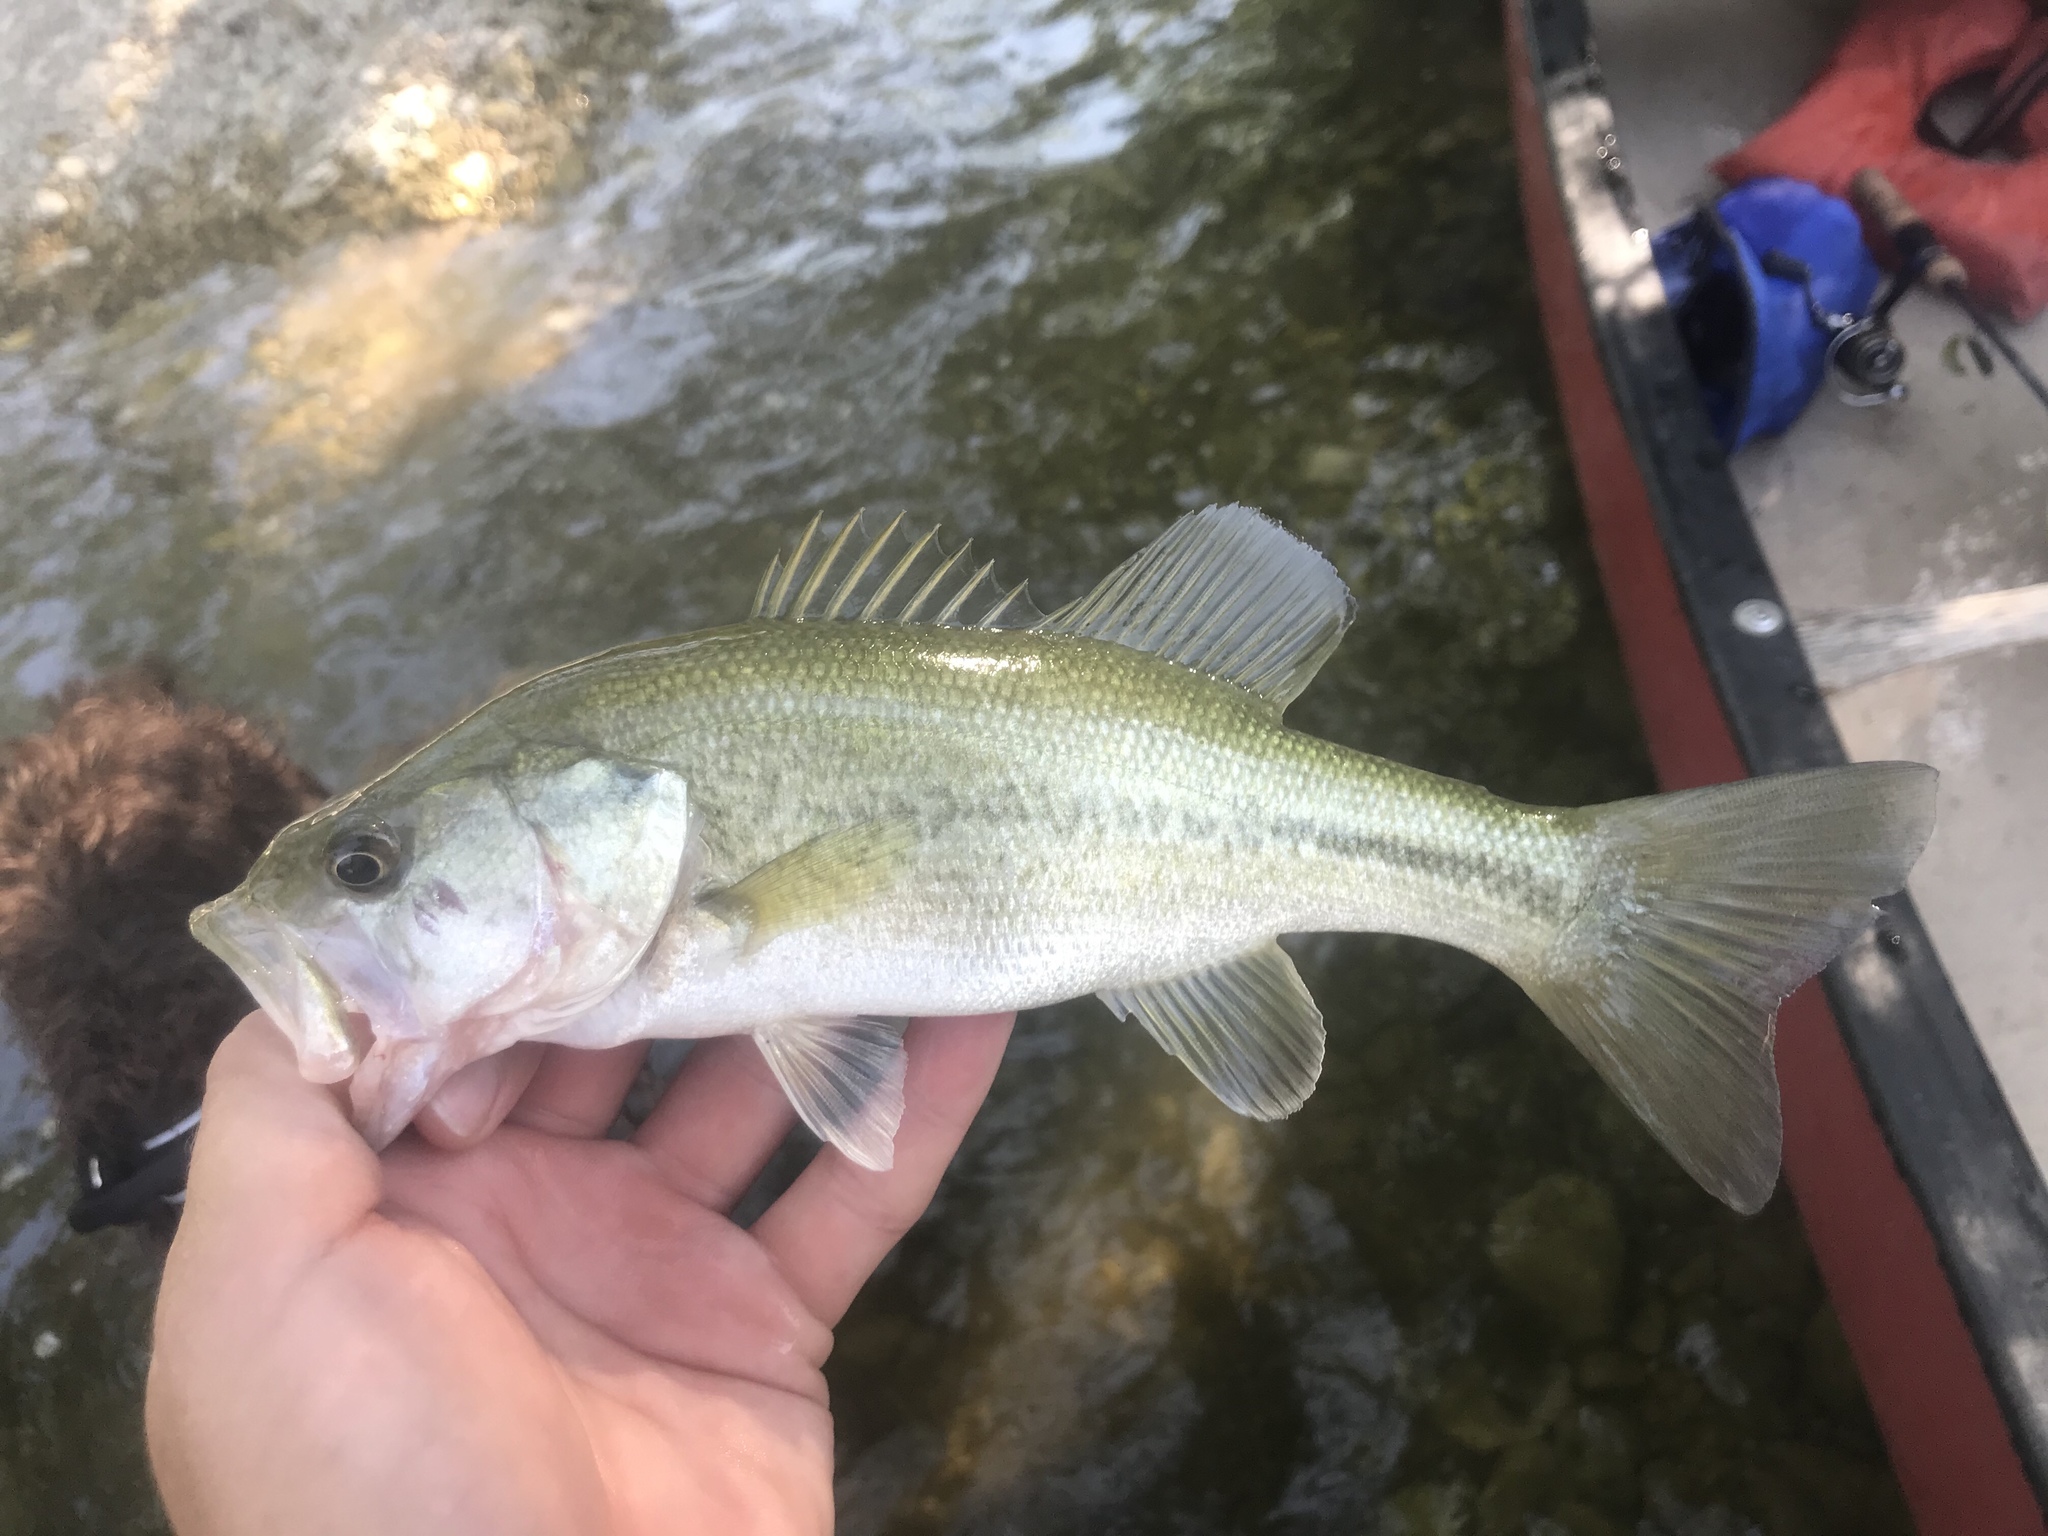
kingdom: Animalia
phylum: Chordata
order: Perciformes
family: Centrarchidae
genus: Micropterus
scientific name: Micropterus
